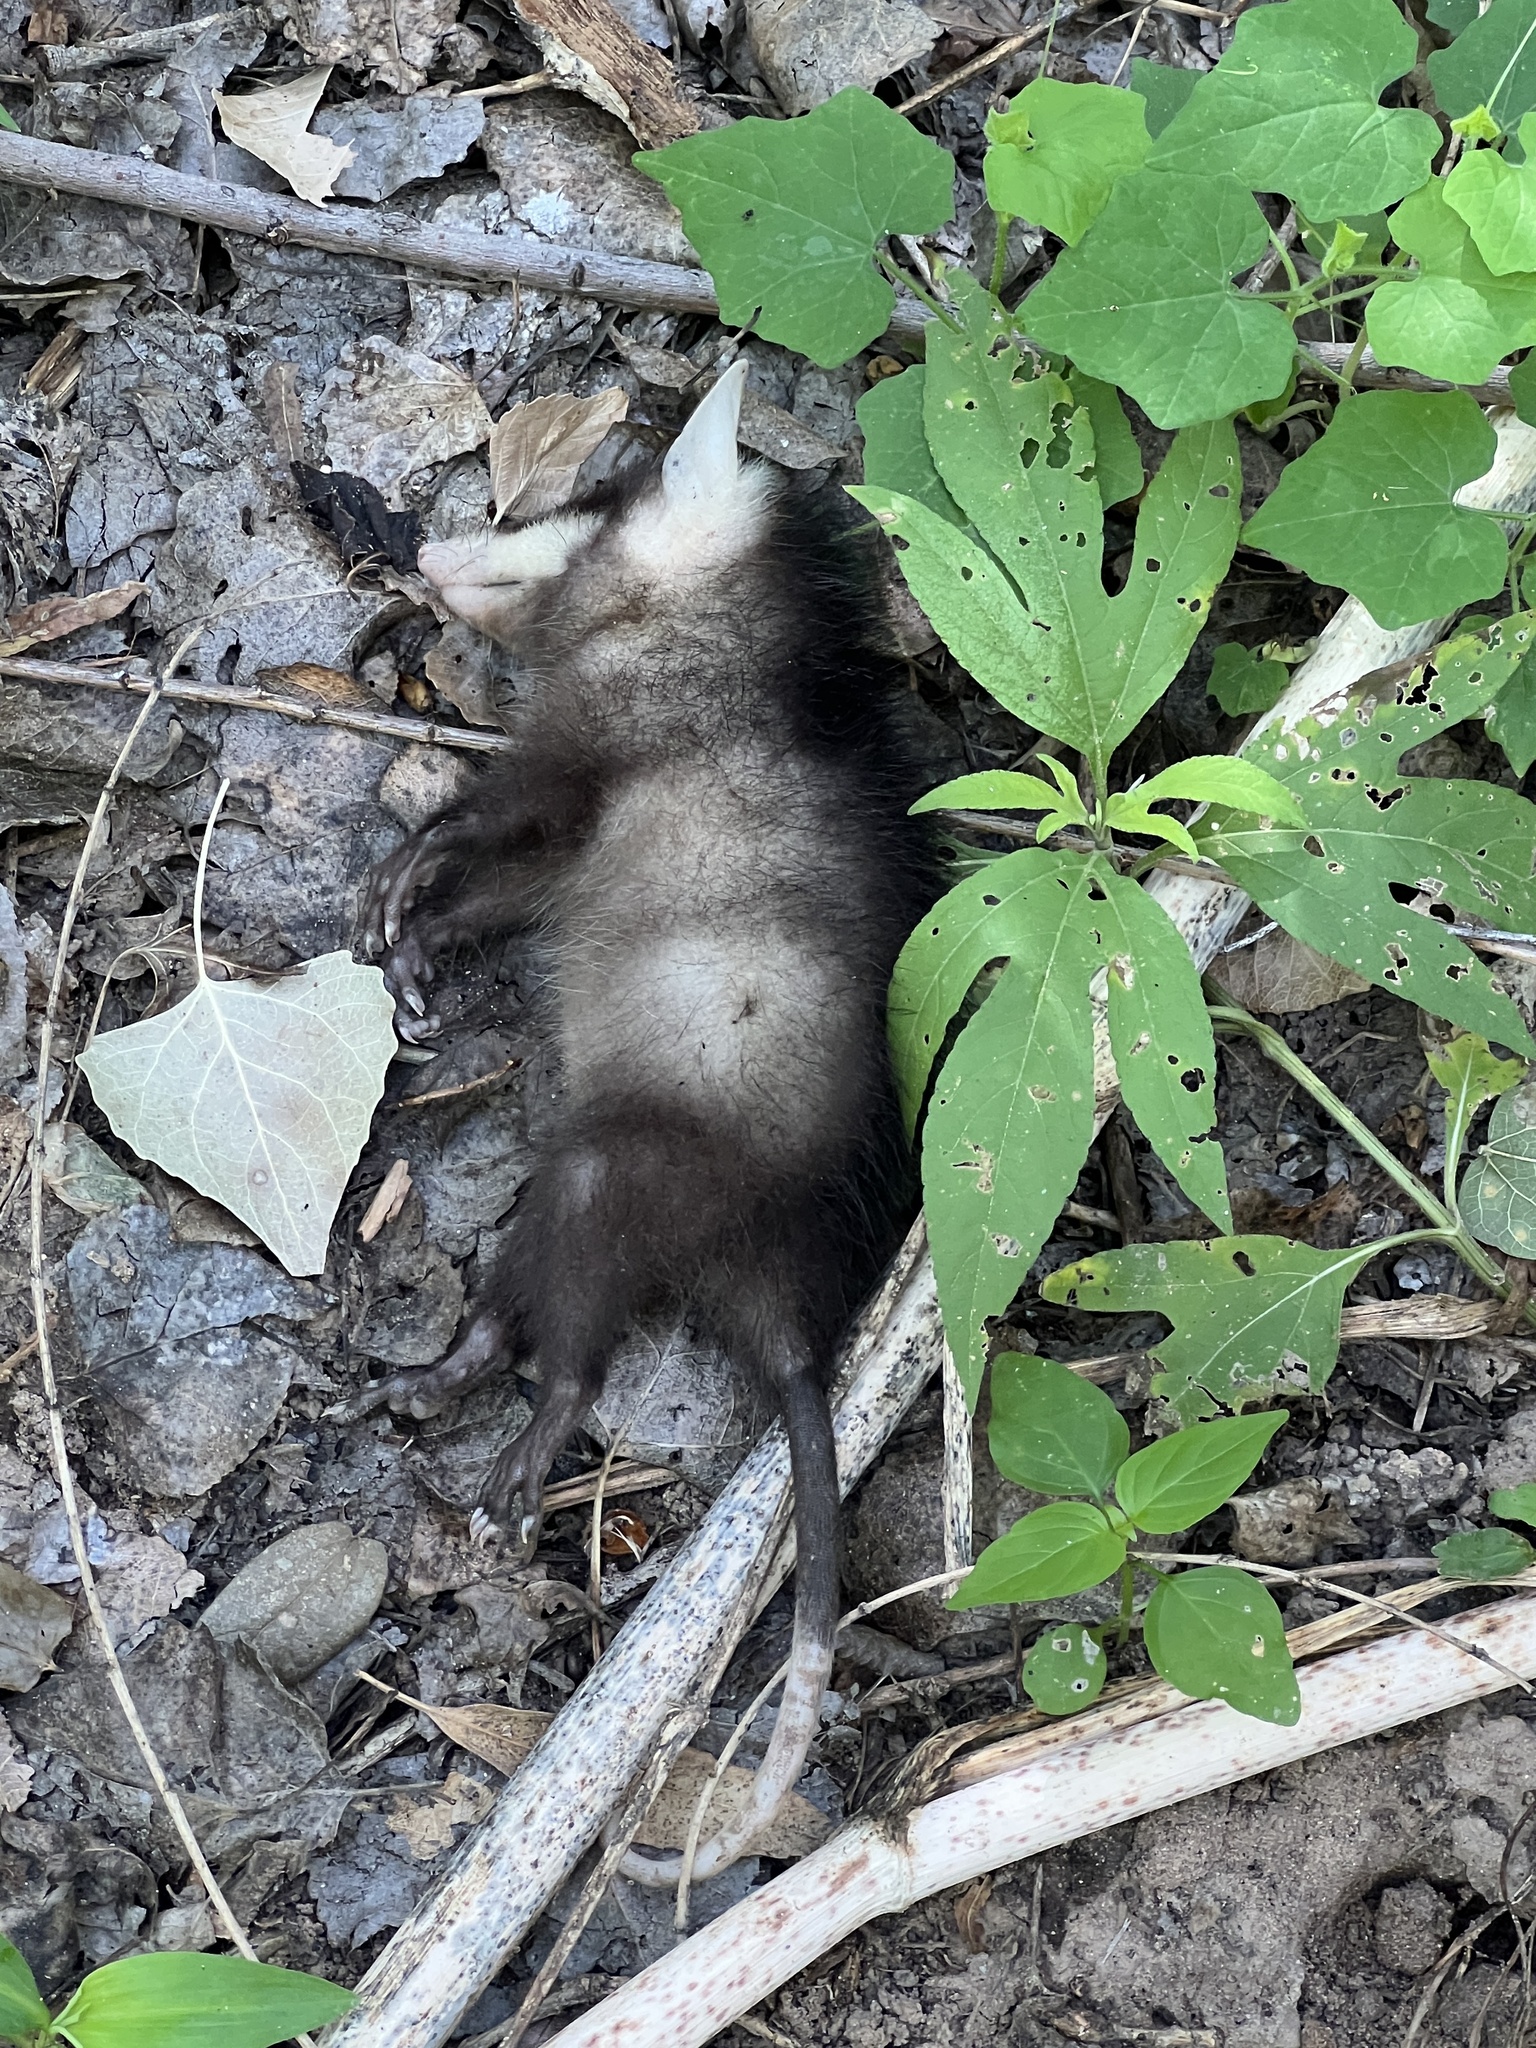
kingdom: Animalia
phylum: Chordata
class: Mammalia
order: Didelphimorphia
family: Didelphidae
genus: Didelphis
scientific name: Didelphis virginiana
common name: Virginia opossum
